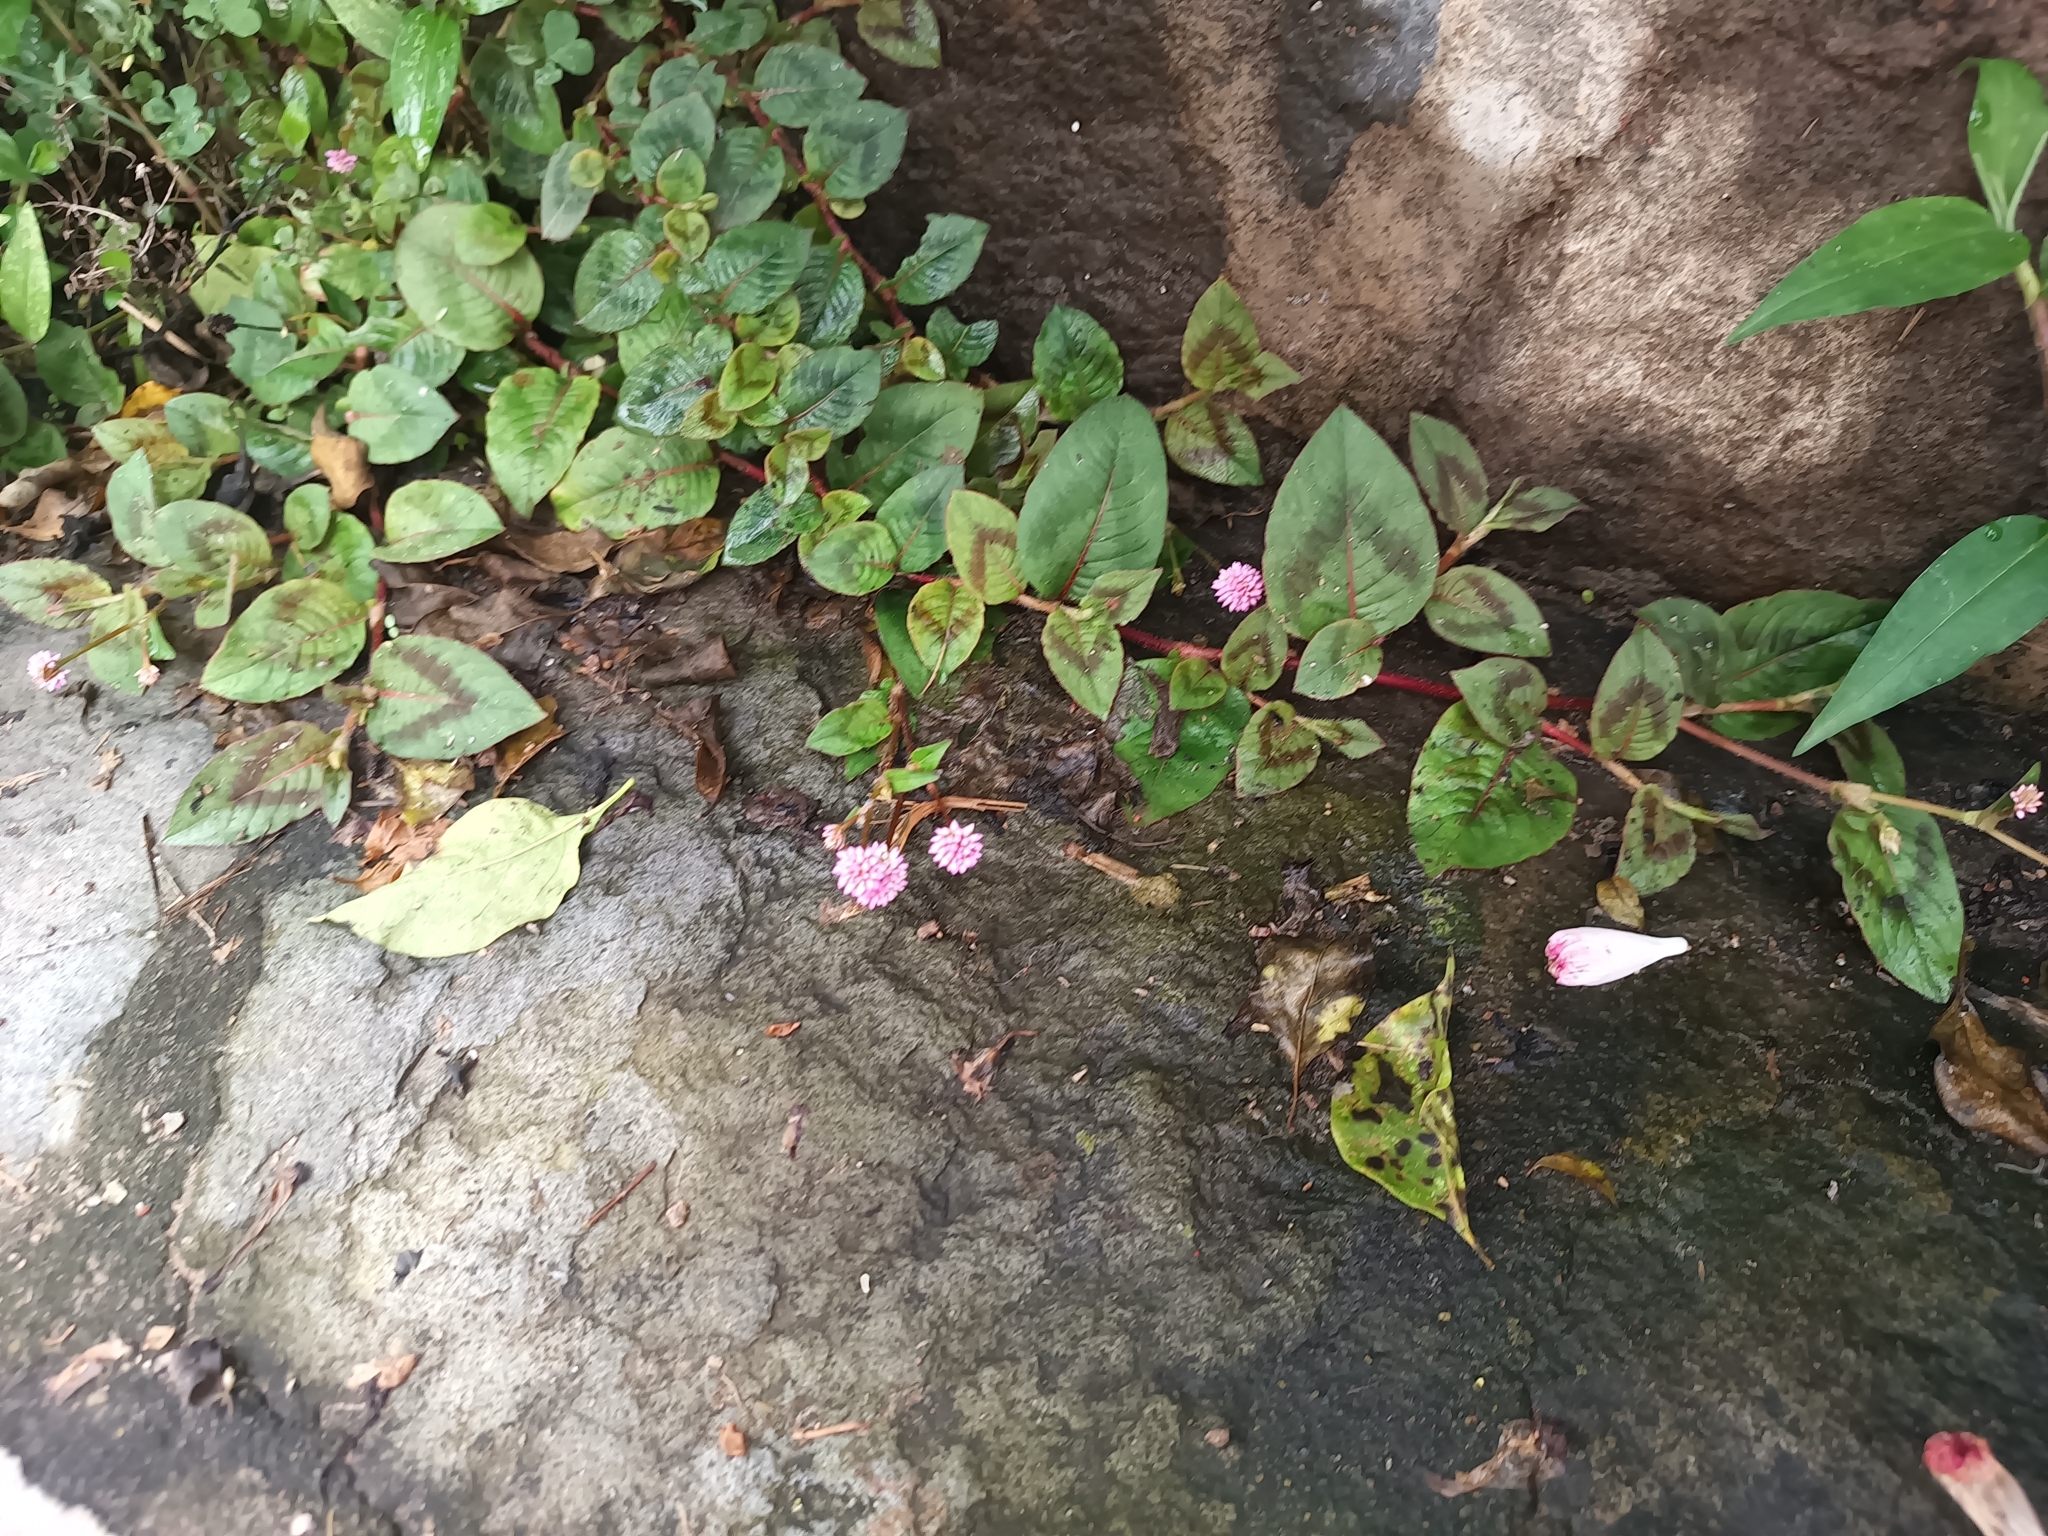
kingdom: Plantae
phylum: Tracheophyta
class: Magnoliopsida
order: Caryophyllales
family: Polygonaceae
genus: Persicaria
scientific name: Persicaria capitata
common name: Pinkhead smartweed
